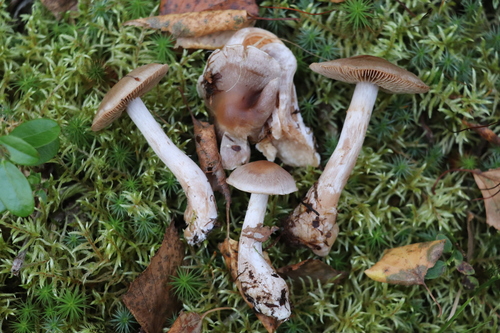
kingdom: Fungi
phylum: Basidiomycota
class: Agaricomycetes
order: Agaricales
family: Cortinariaceae
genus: Cortinarius
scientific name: Cortinarius
